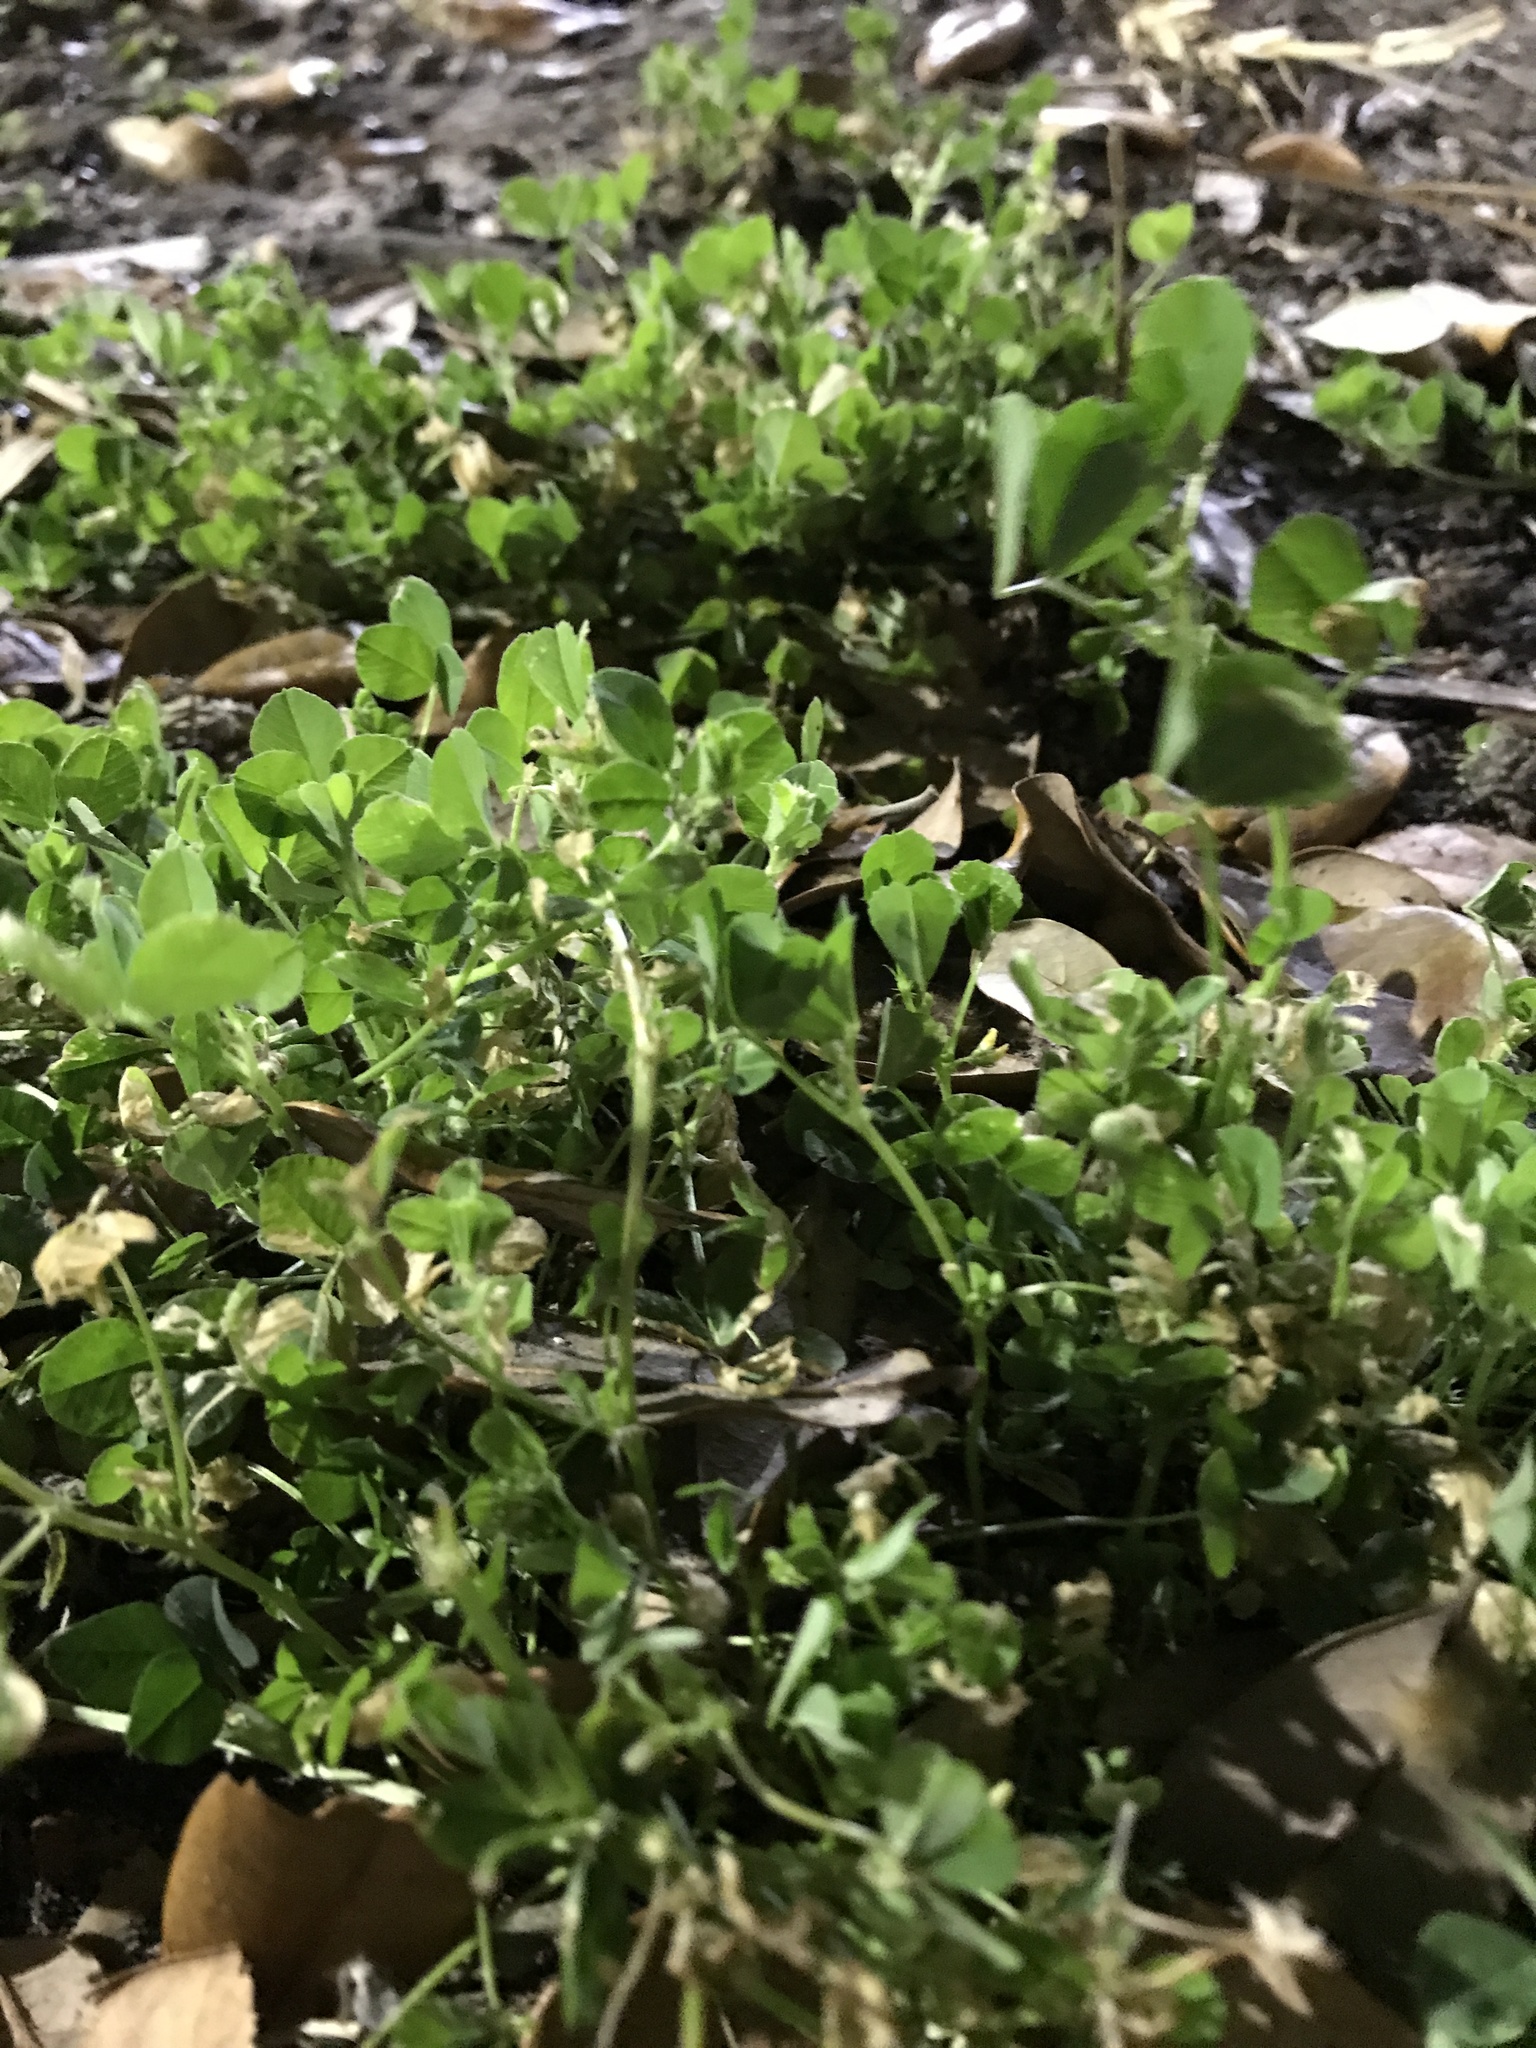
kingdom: Plantae
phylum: Tracheophyta
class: Magnoliopsida
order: Fabales
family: Fabaceae
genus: Medicago
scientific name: Medicago lupulina
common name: Black medick
